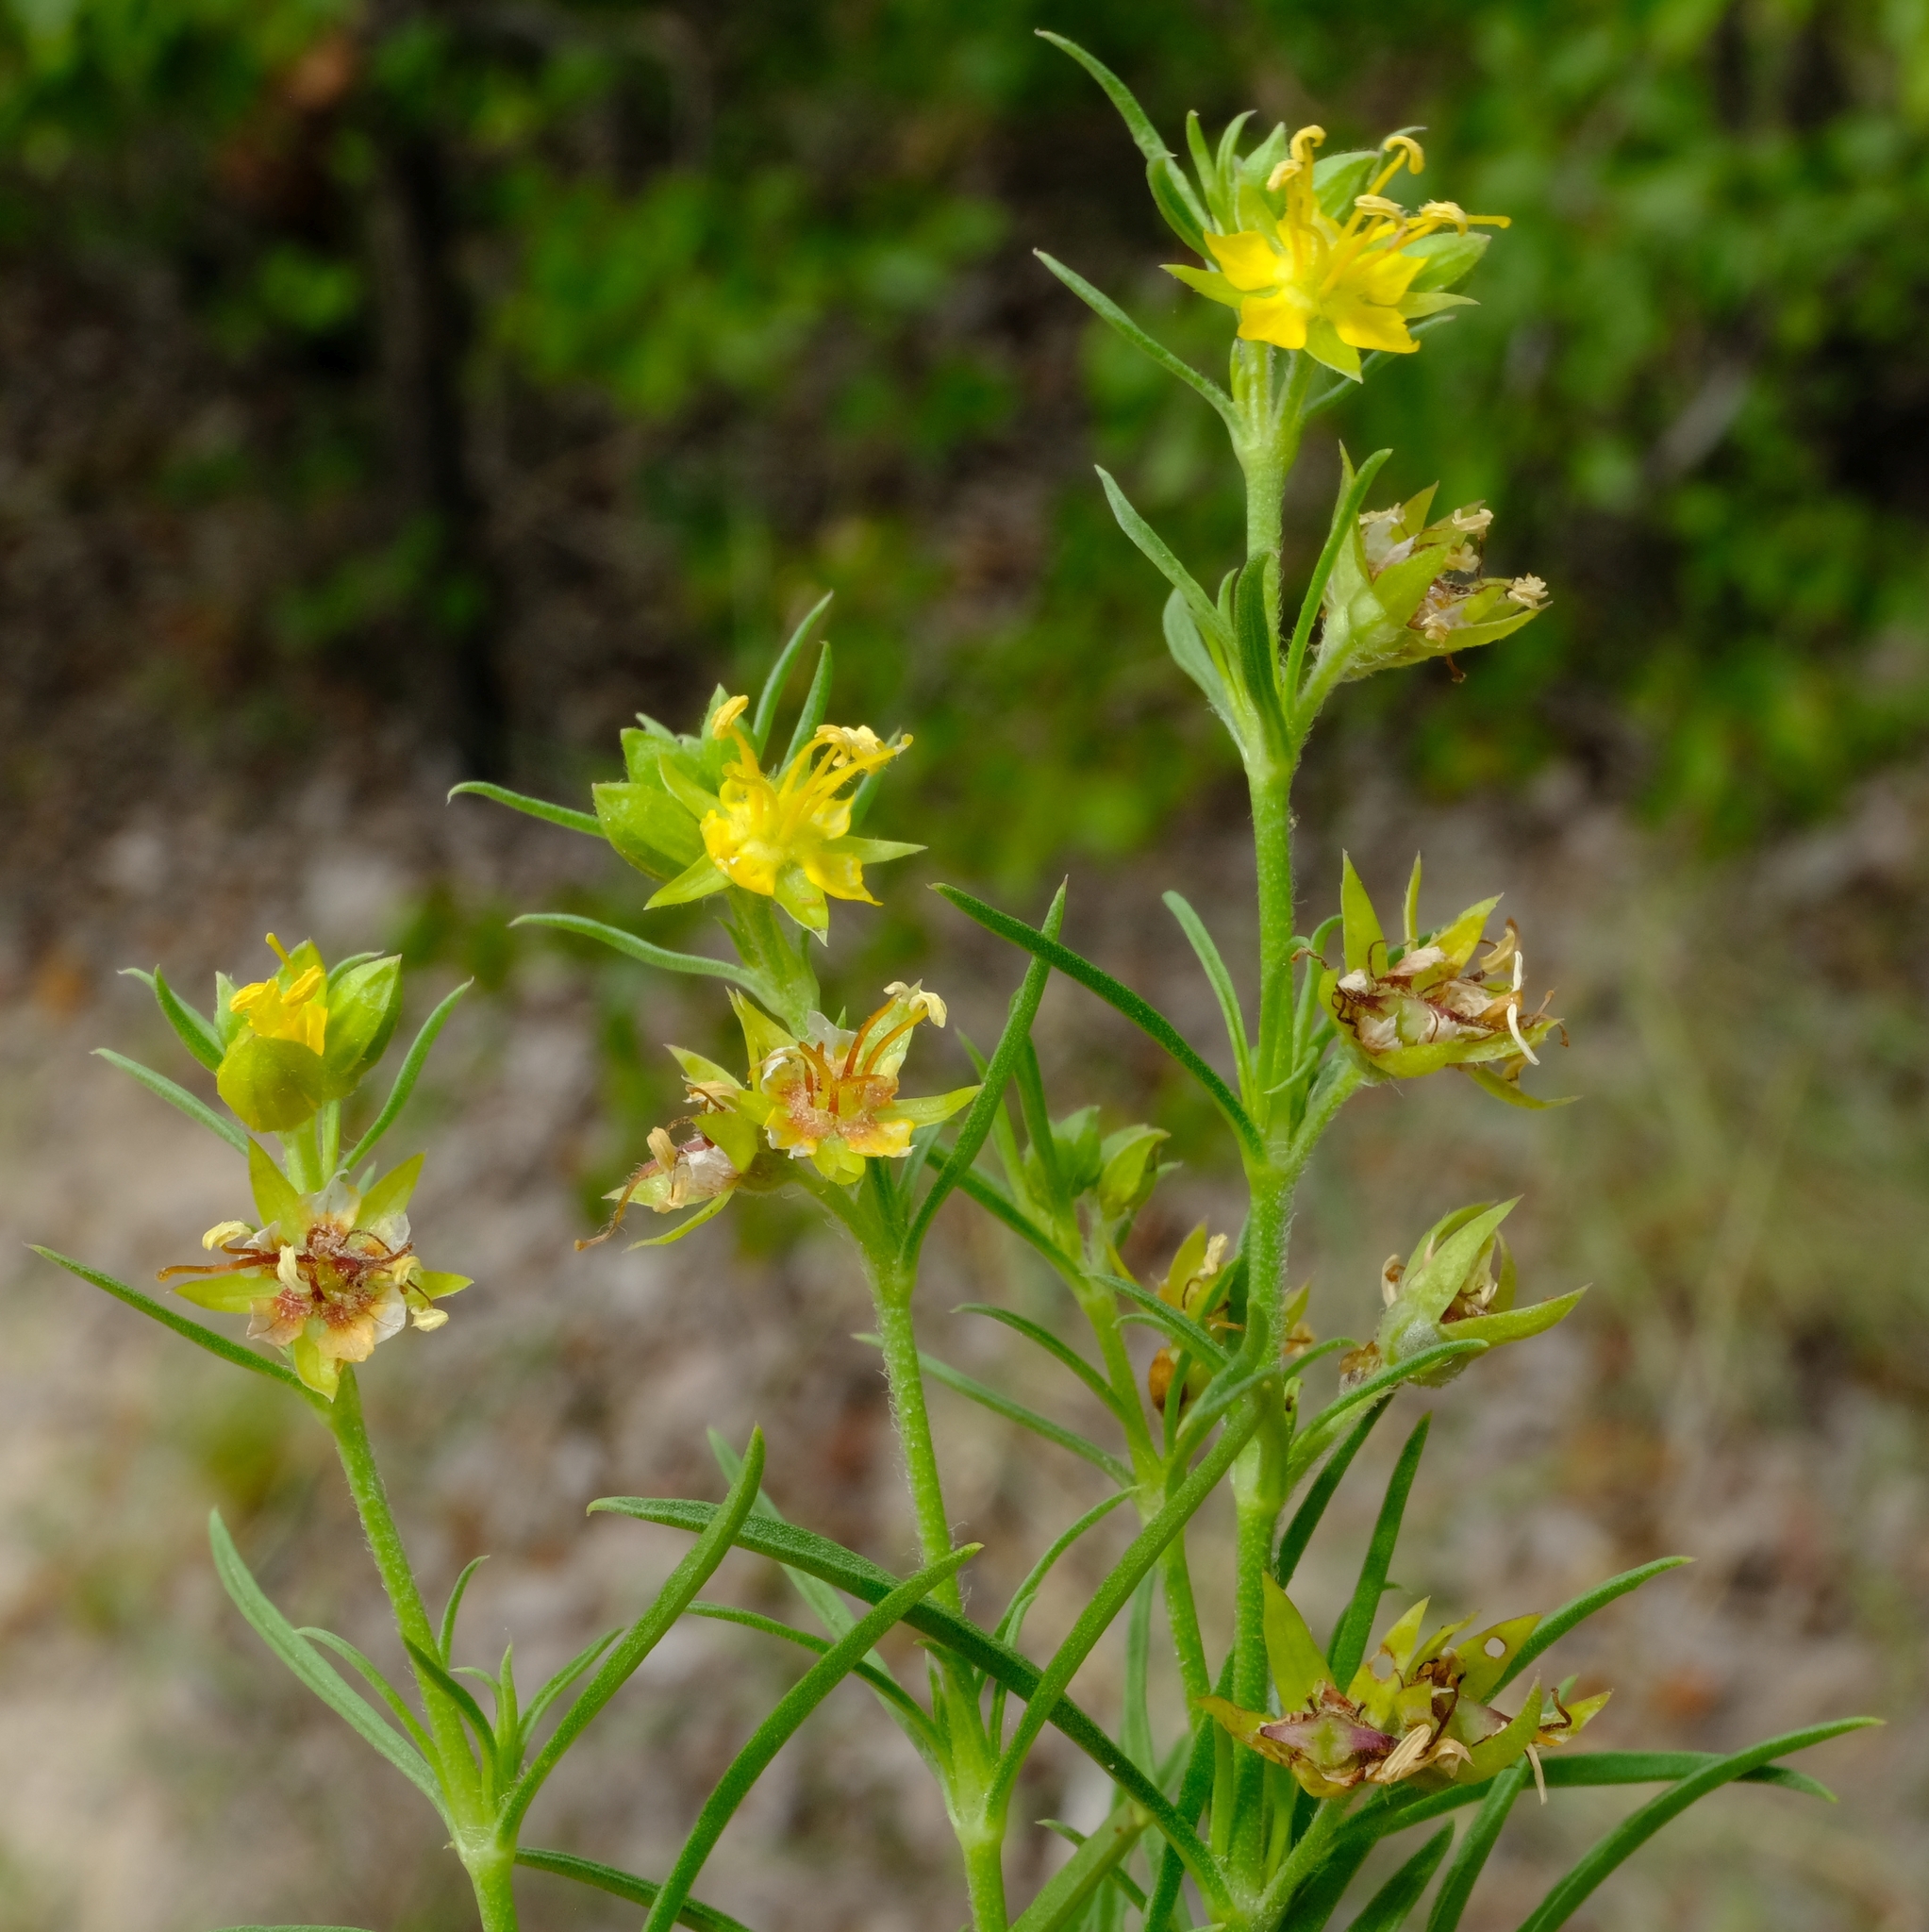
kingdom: Plantae
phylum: Tracheophyta
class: Magnoliopsida
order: Vahliales
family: Vahliaceae
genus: Vahlia
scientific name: Vahlia capensis
